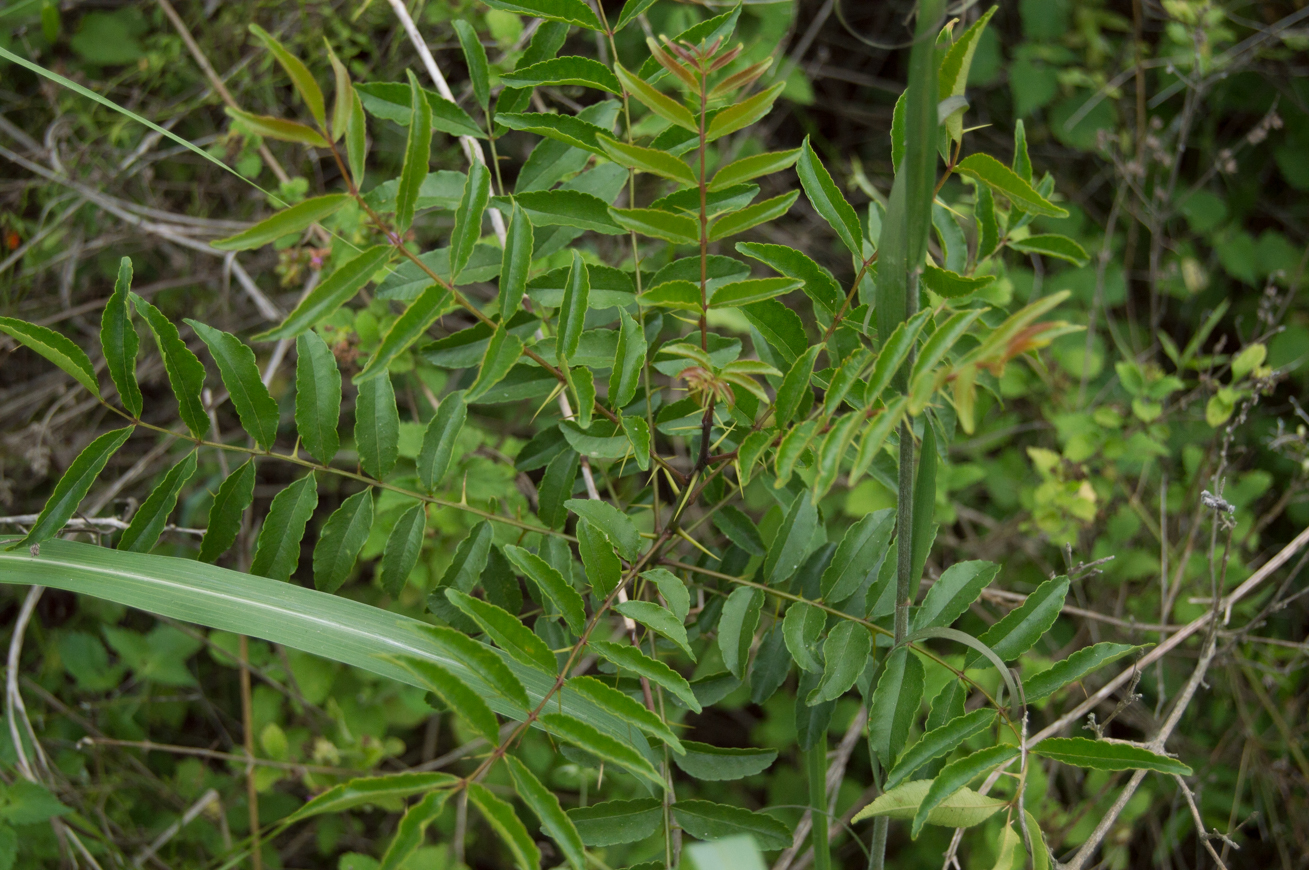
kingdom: Plantae
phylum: Tracheophyta
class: Magnoliopsida
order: Sapindales
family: Rutaceae
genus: Zanthoxylum
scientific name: Zanthoxylum rhoifolium
